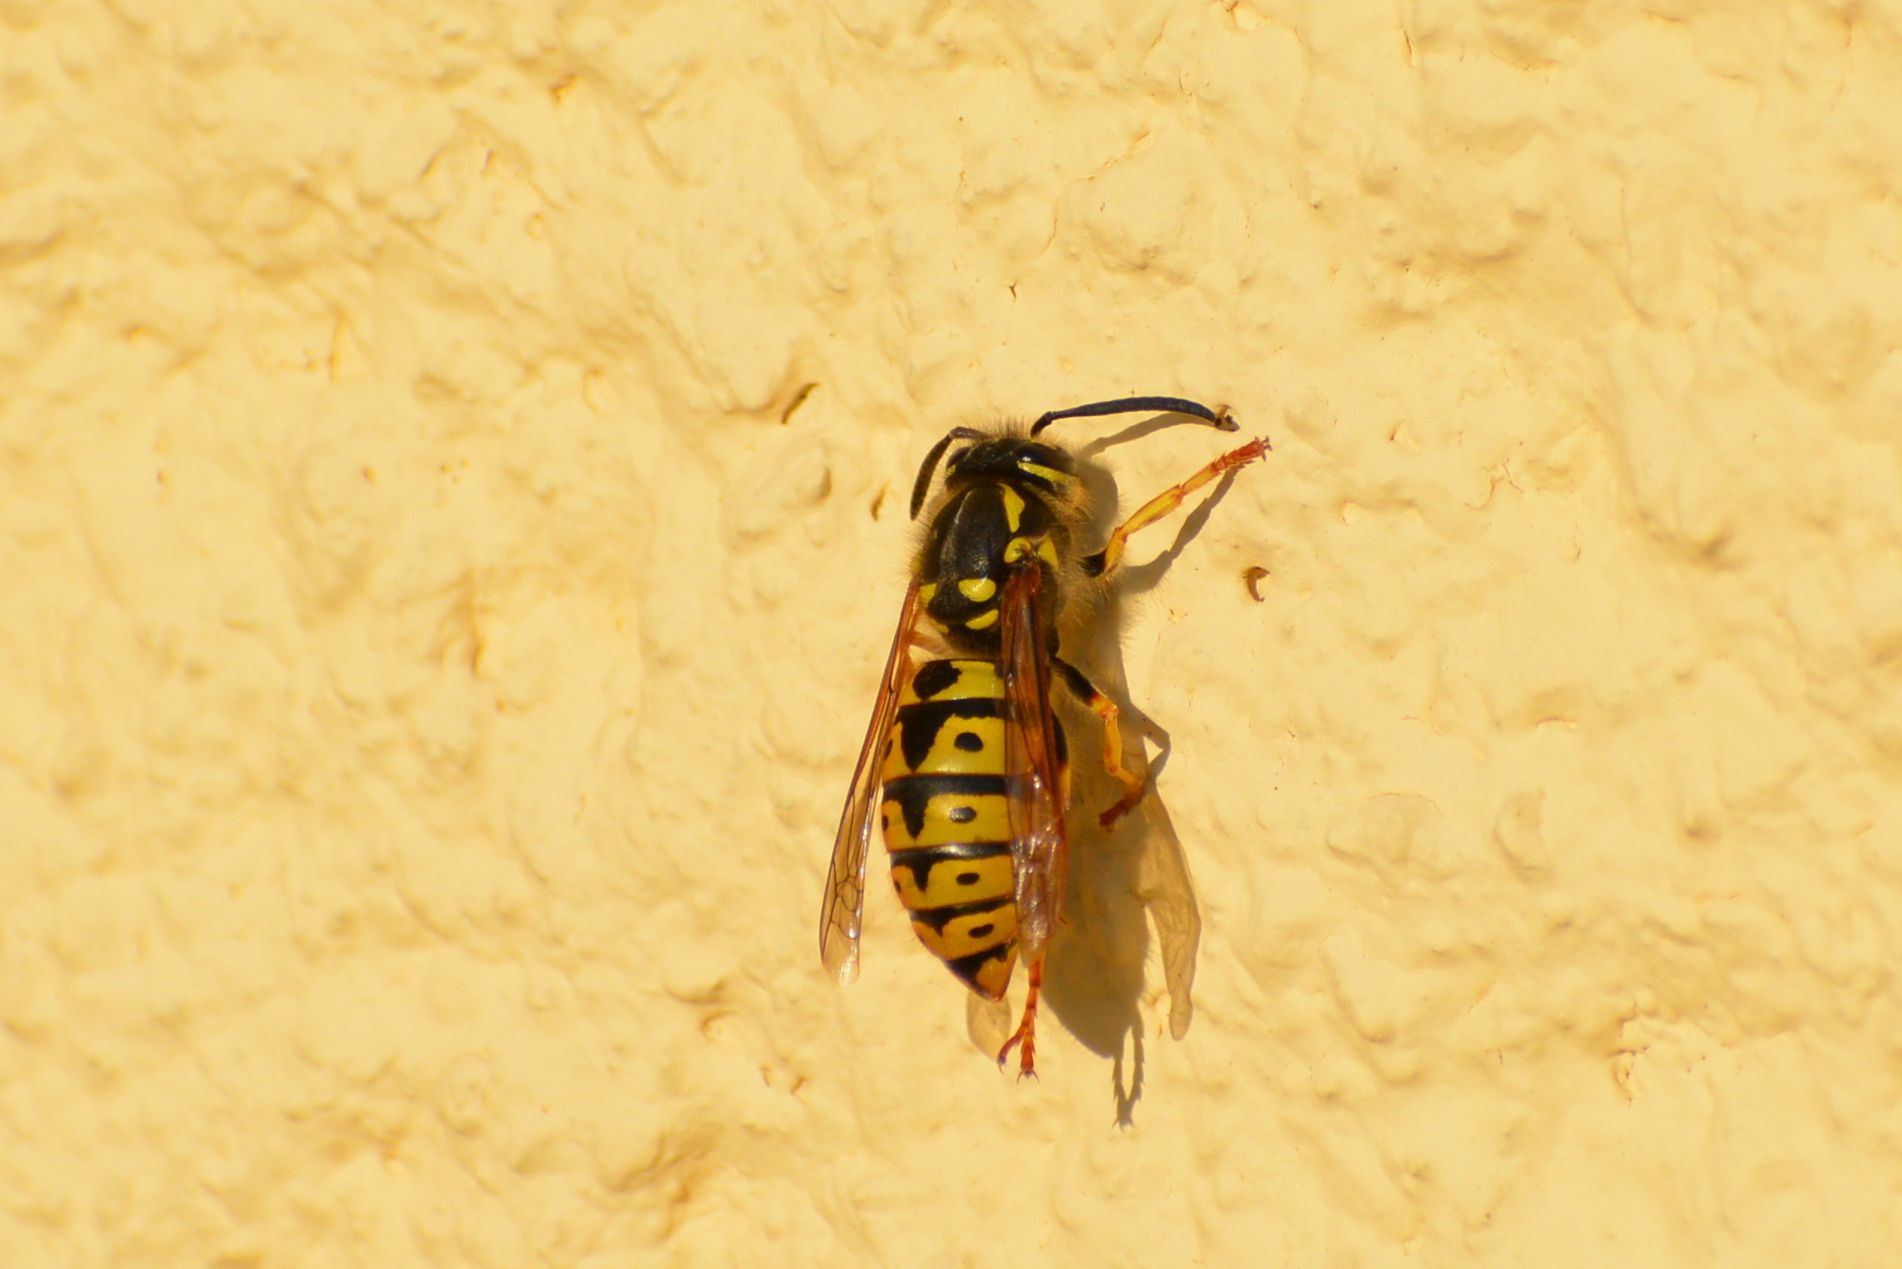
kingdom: Animalia
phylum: Arthropoda
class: Insecta
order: Hymenoptera
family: Vespidae
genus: Vespula
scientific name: Vespula germanica
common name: German wasp
